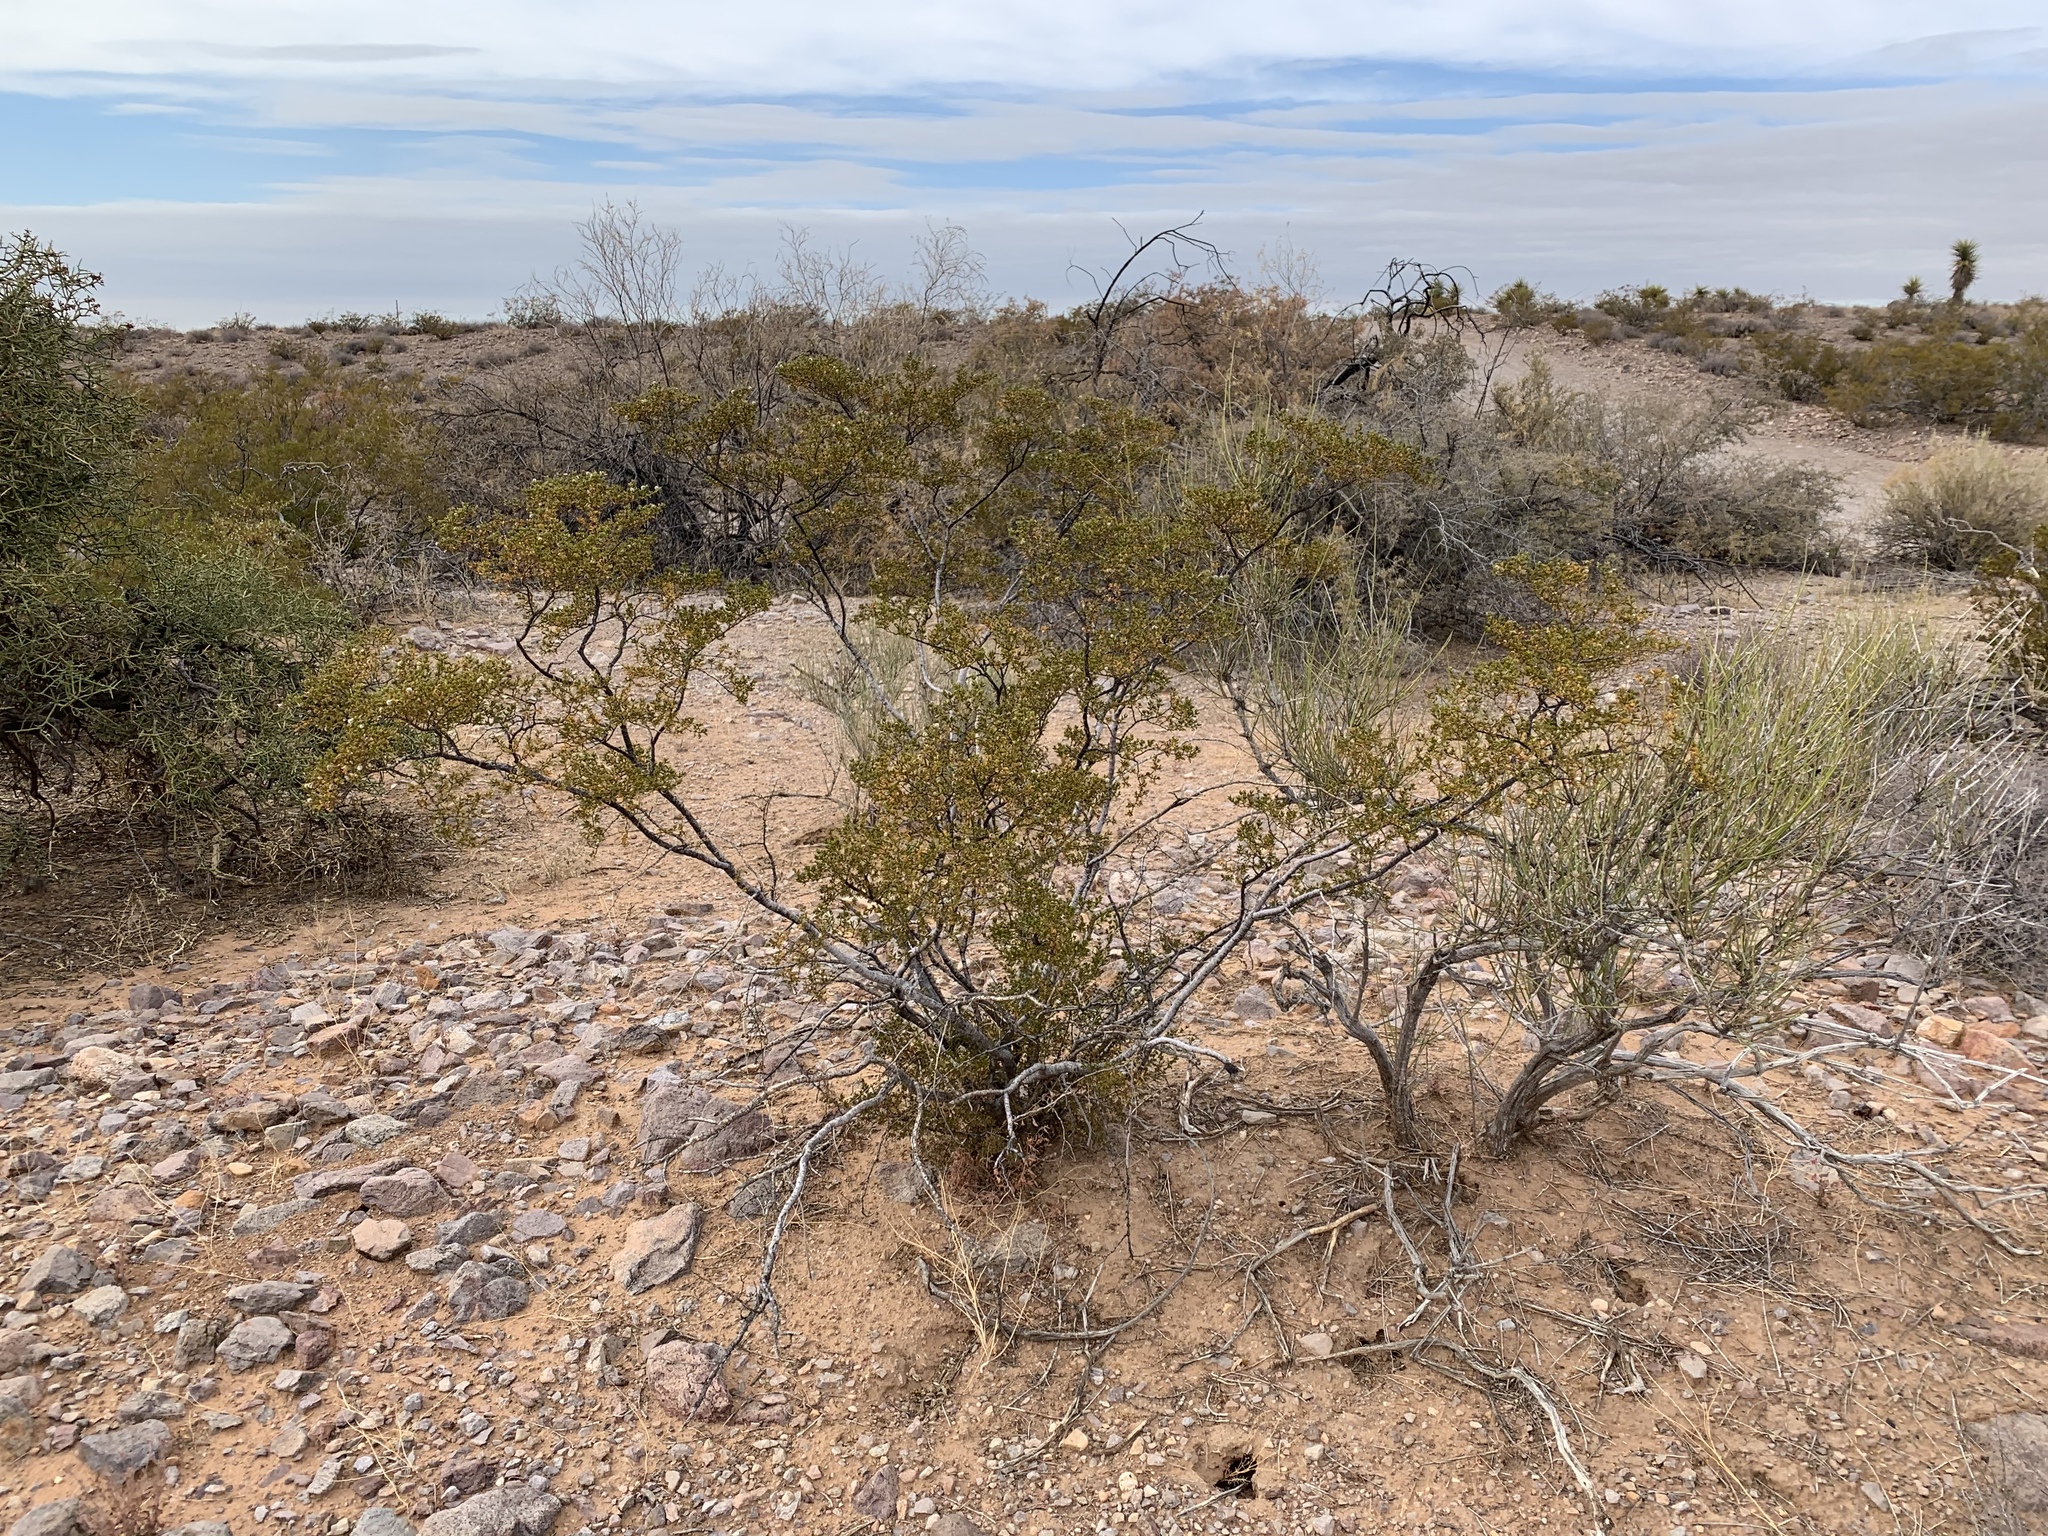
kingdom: Plantae
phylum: Tracheophyta
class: Magnoliopsida
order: Zygophyllales
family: Zygophyllaceae
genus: Larrea
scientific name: Larrea tridentata
